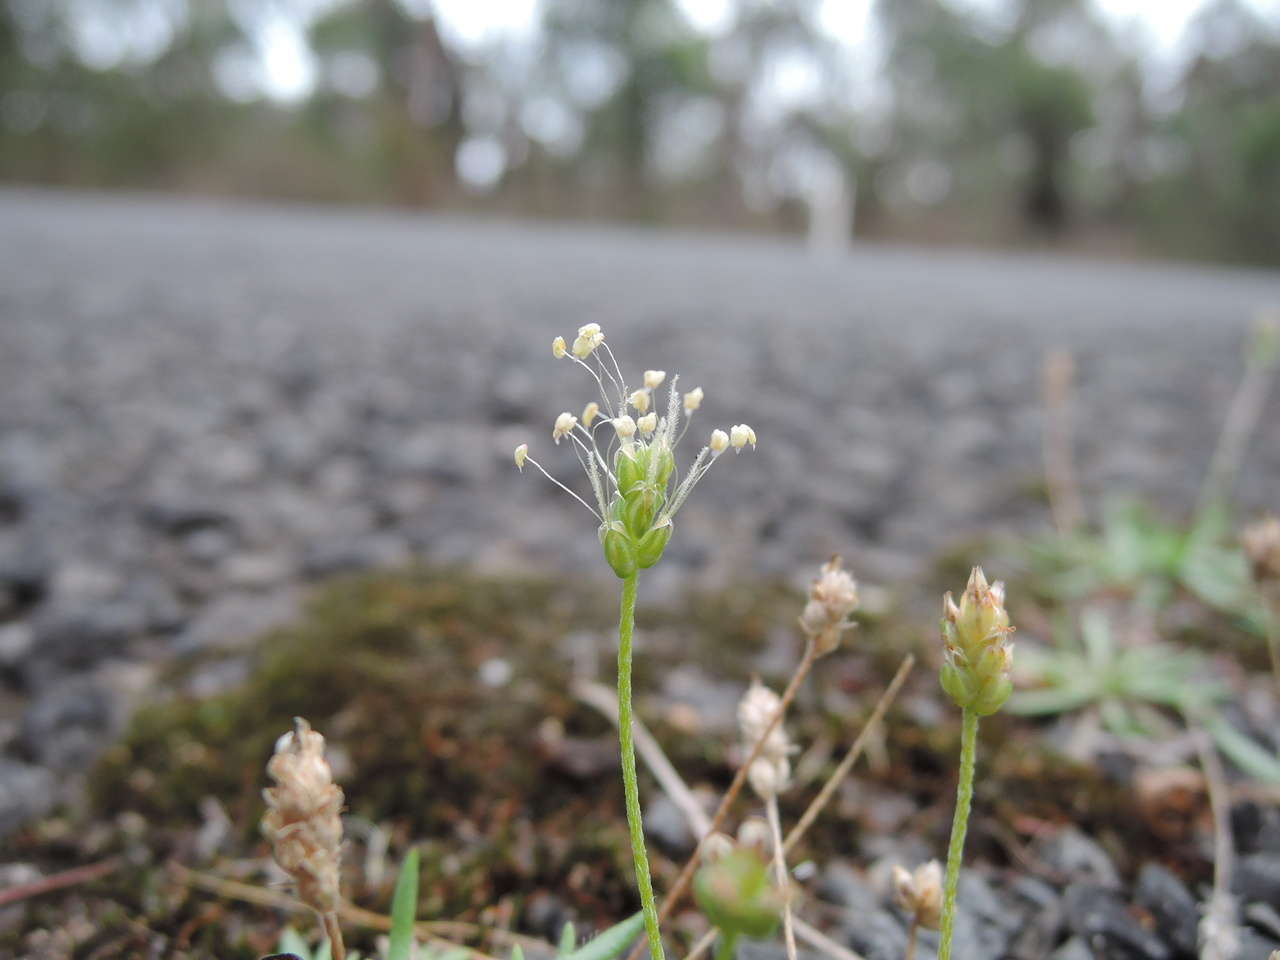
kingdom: Plantae
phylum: Tracheophyta
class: Magnoliopsida
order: Lamiales
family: Plantaginaceae
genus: Plantago
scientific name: Plantago coronopus
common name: Buck's-horn plantain
